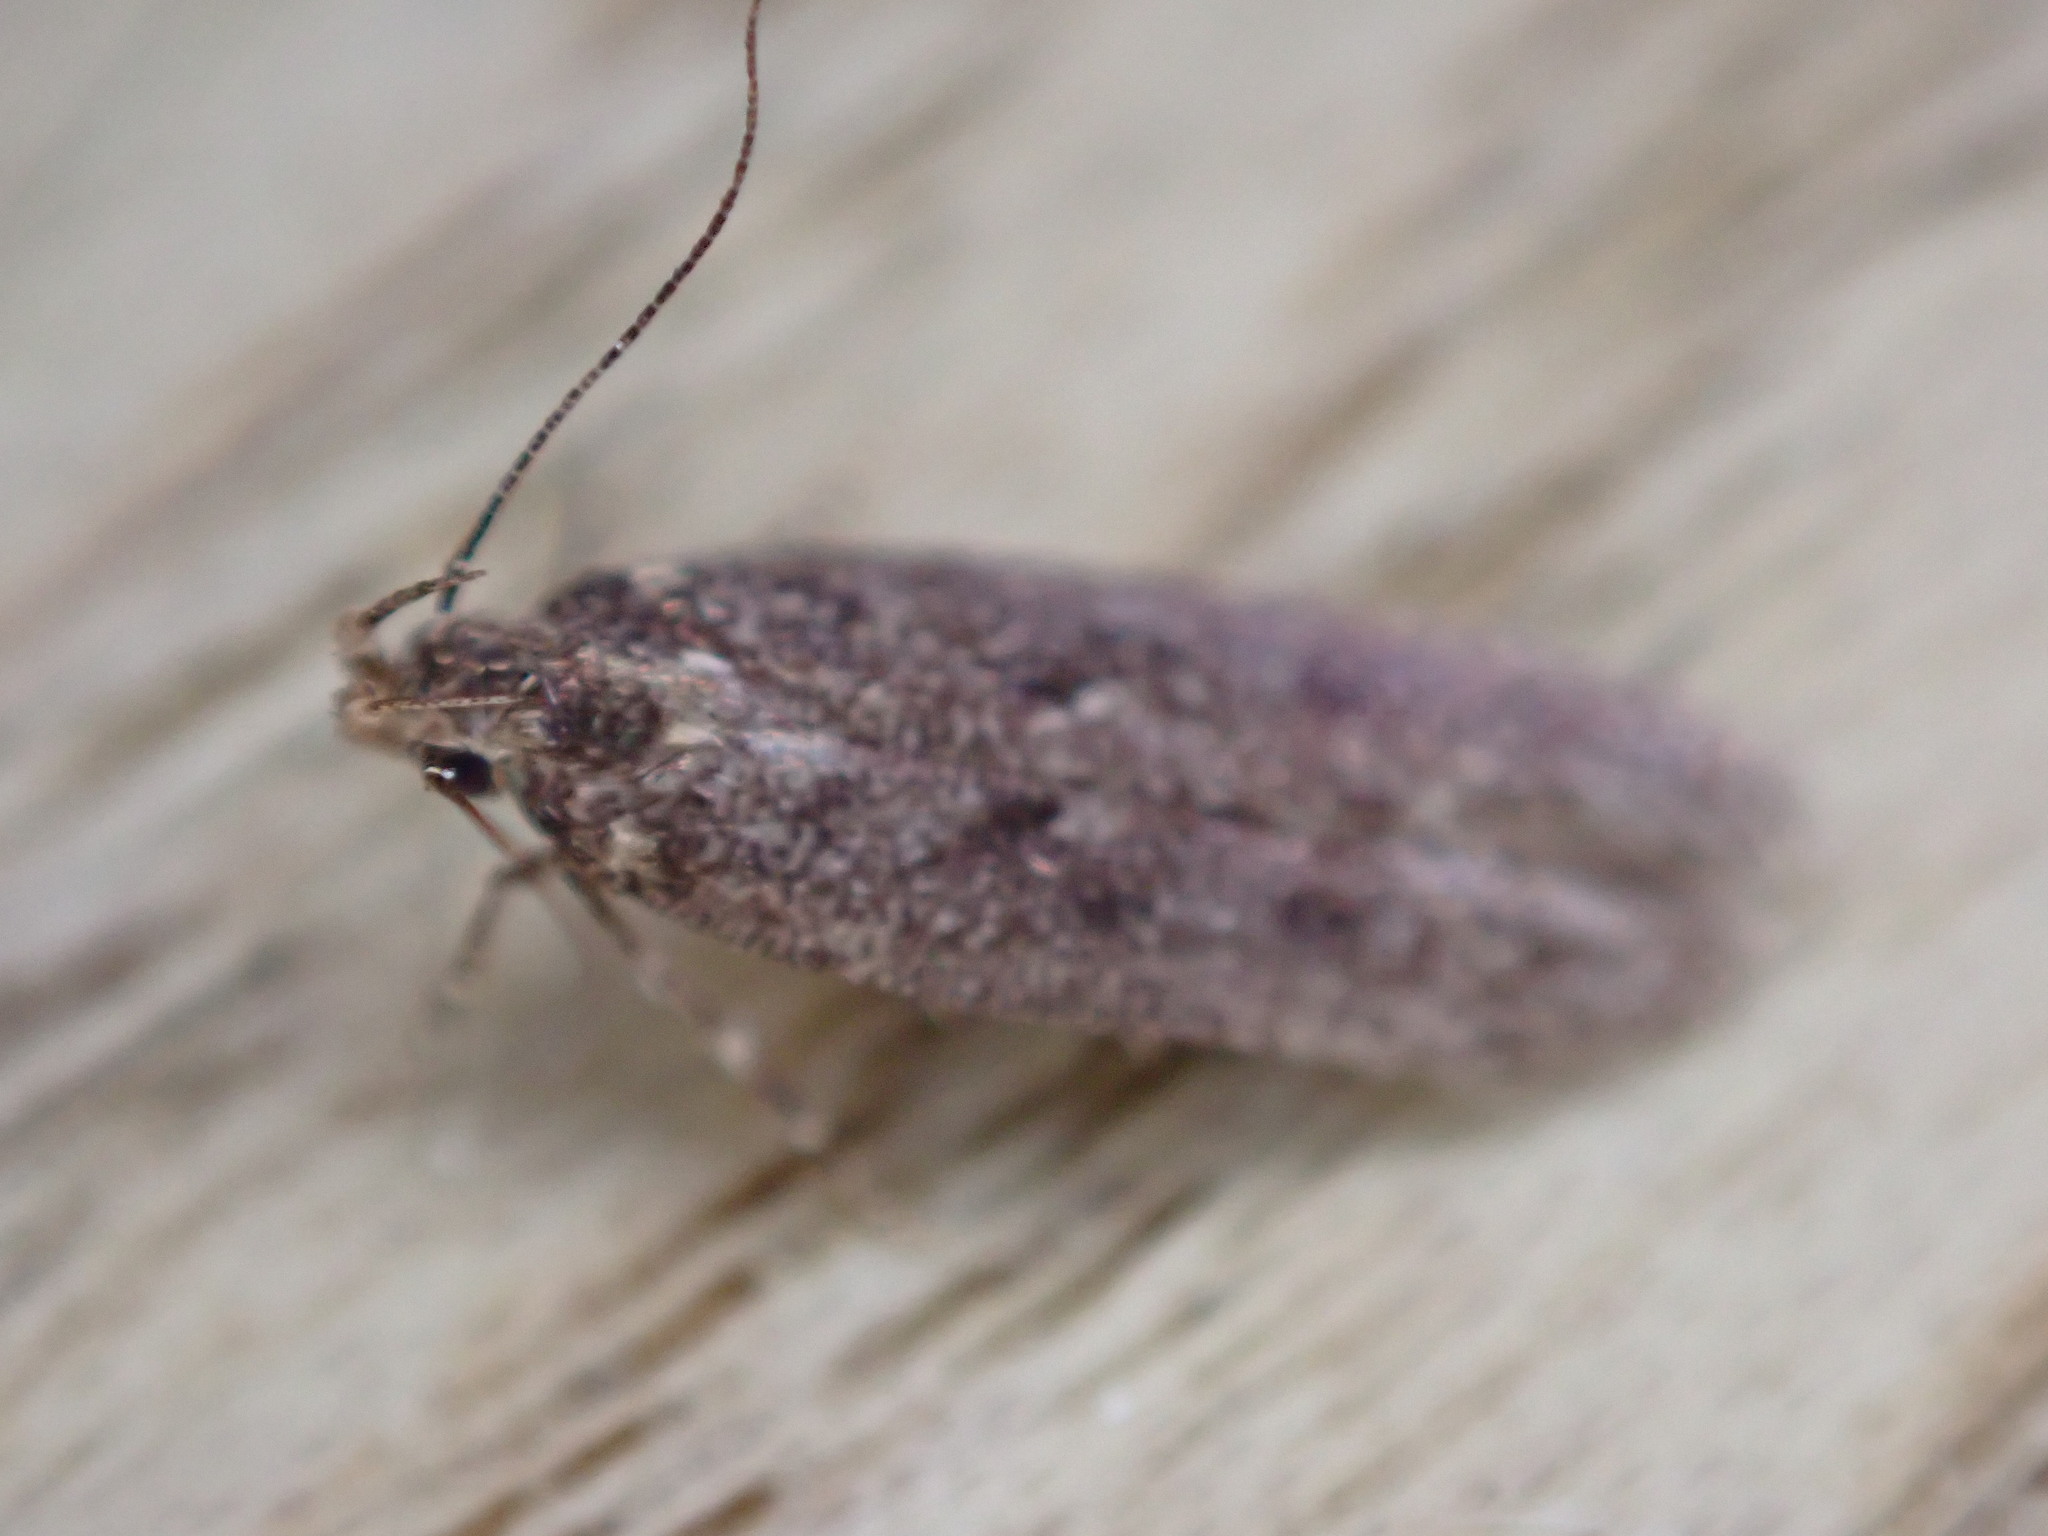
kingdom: Animalia
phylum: Arthropoda
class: Insecta
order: Lepidoptera
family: Oecophoridae
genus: Hofmannophila
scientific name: Hofmannophila pseudospretella
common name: Brown house moth
